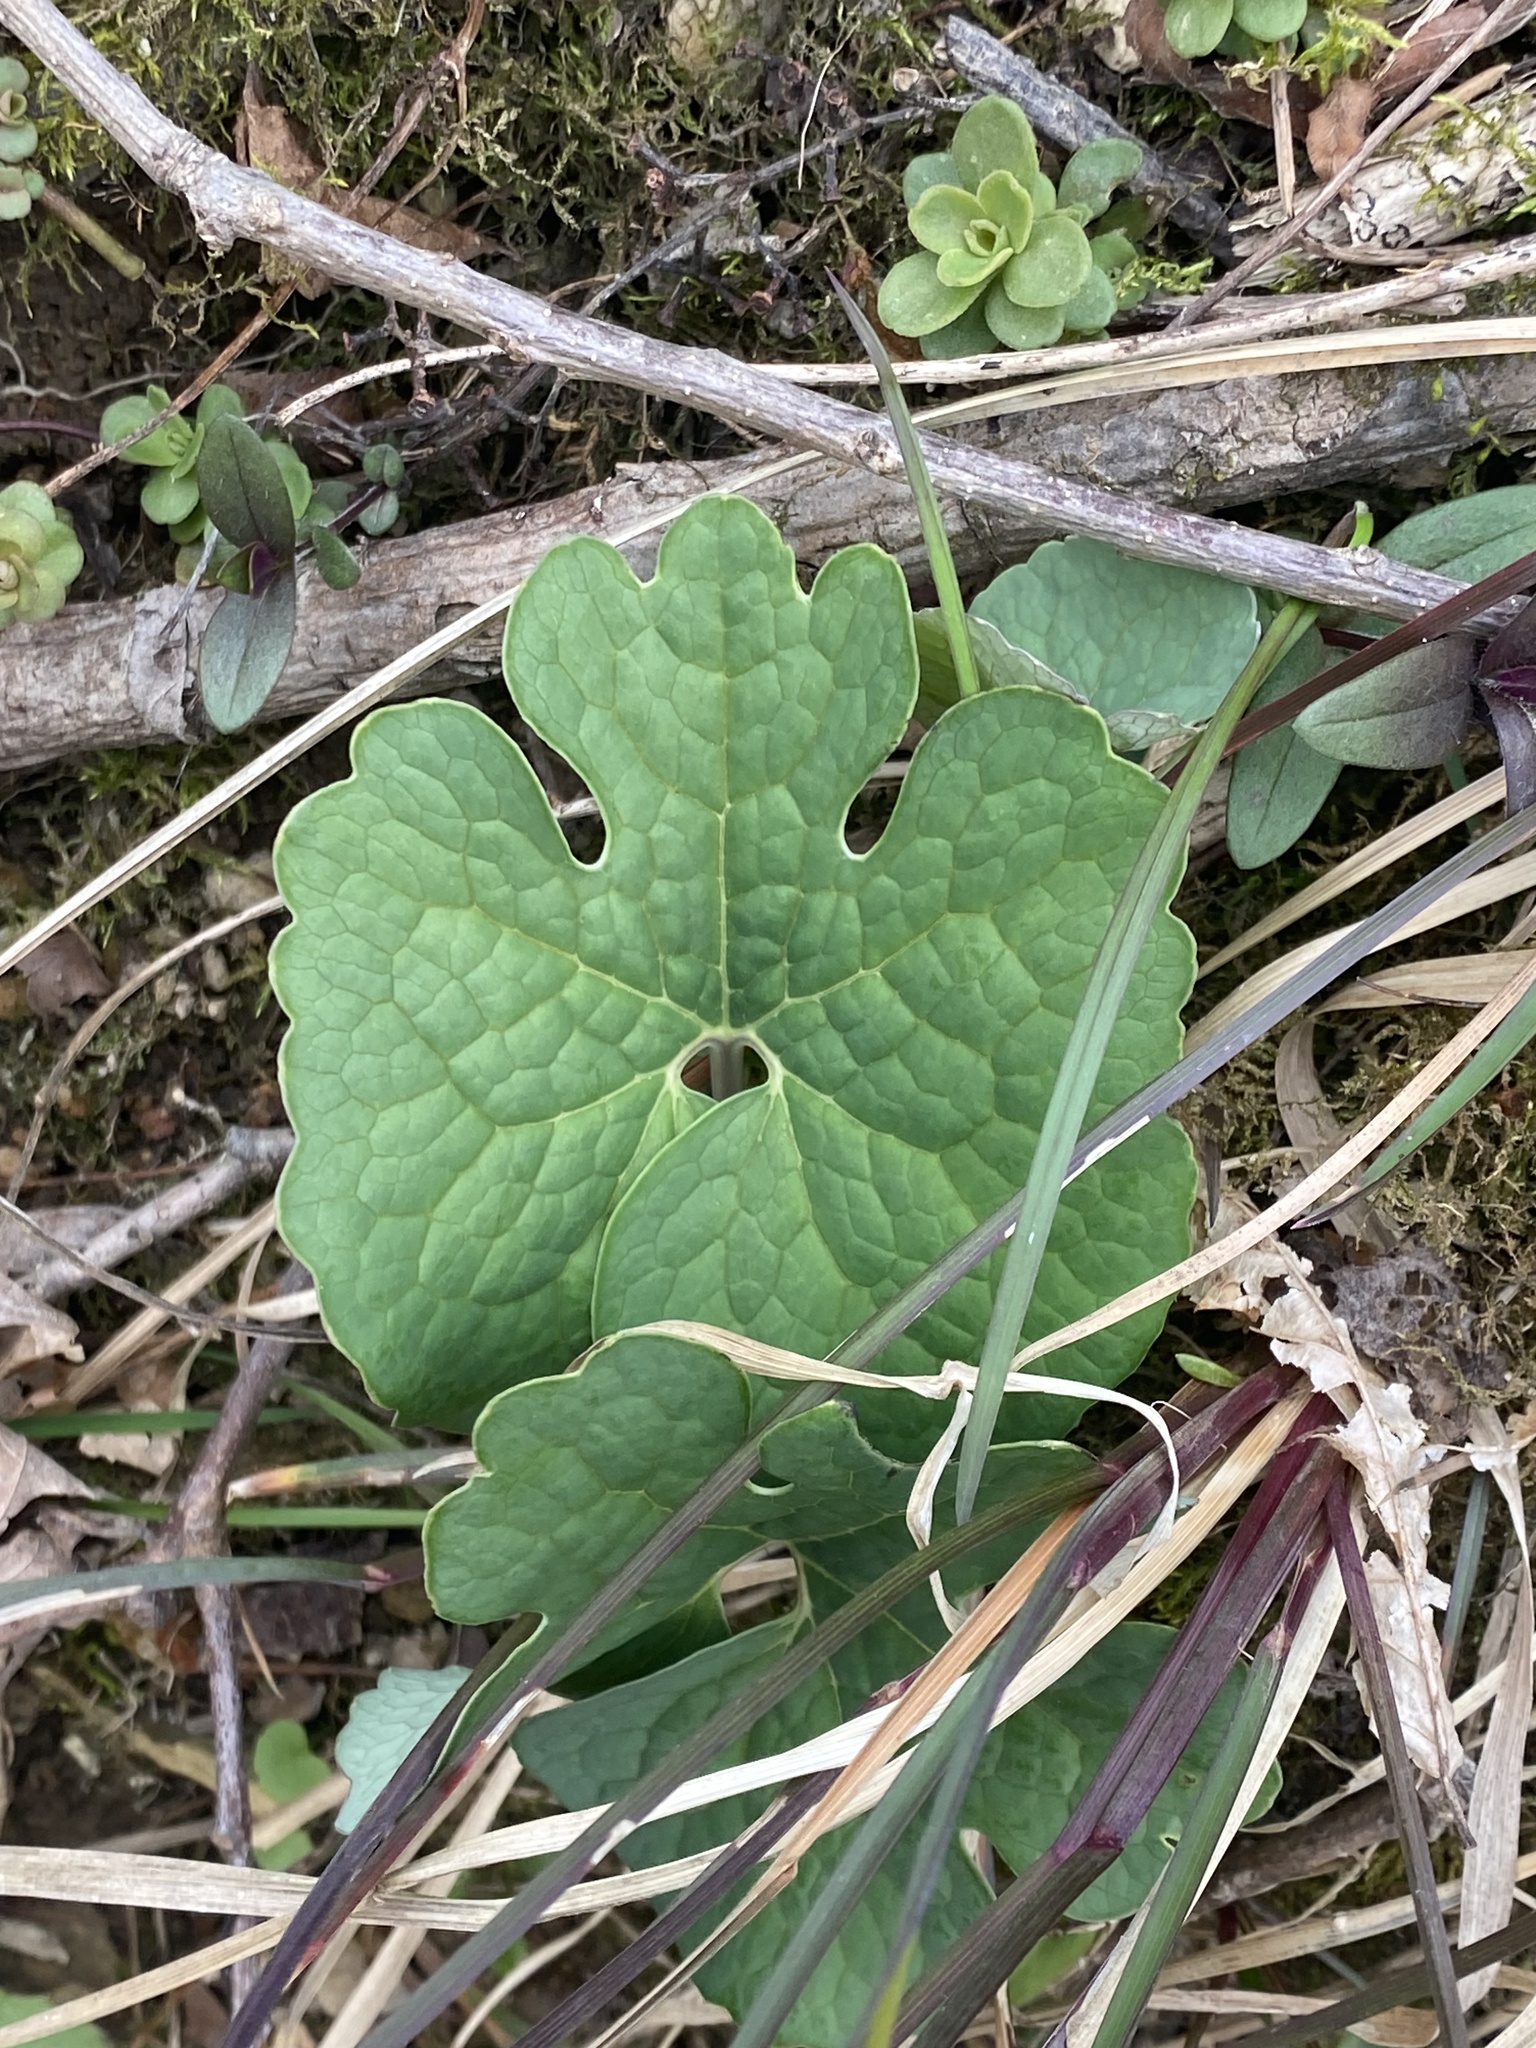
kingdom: Plantae
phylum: Tracheophyta
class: Magnoliopsida
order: Ranunculales
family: Papaveraceae
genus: Sanguinaria
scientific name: Sanguinaria canadensis
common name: Bloodroot
